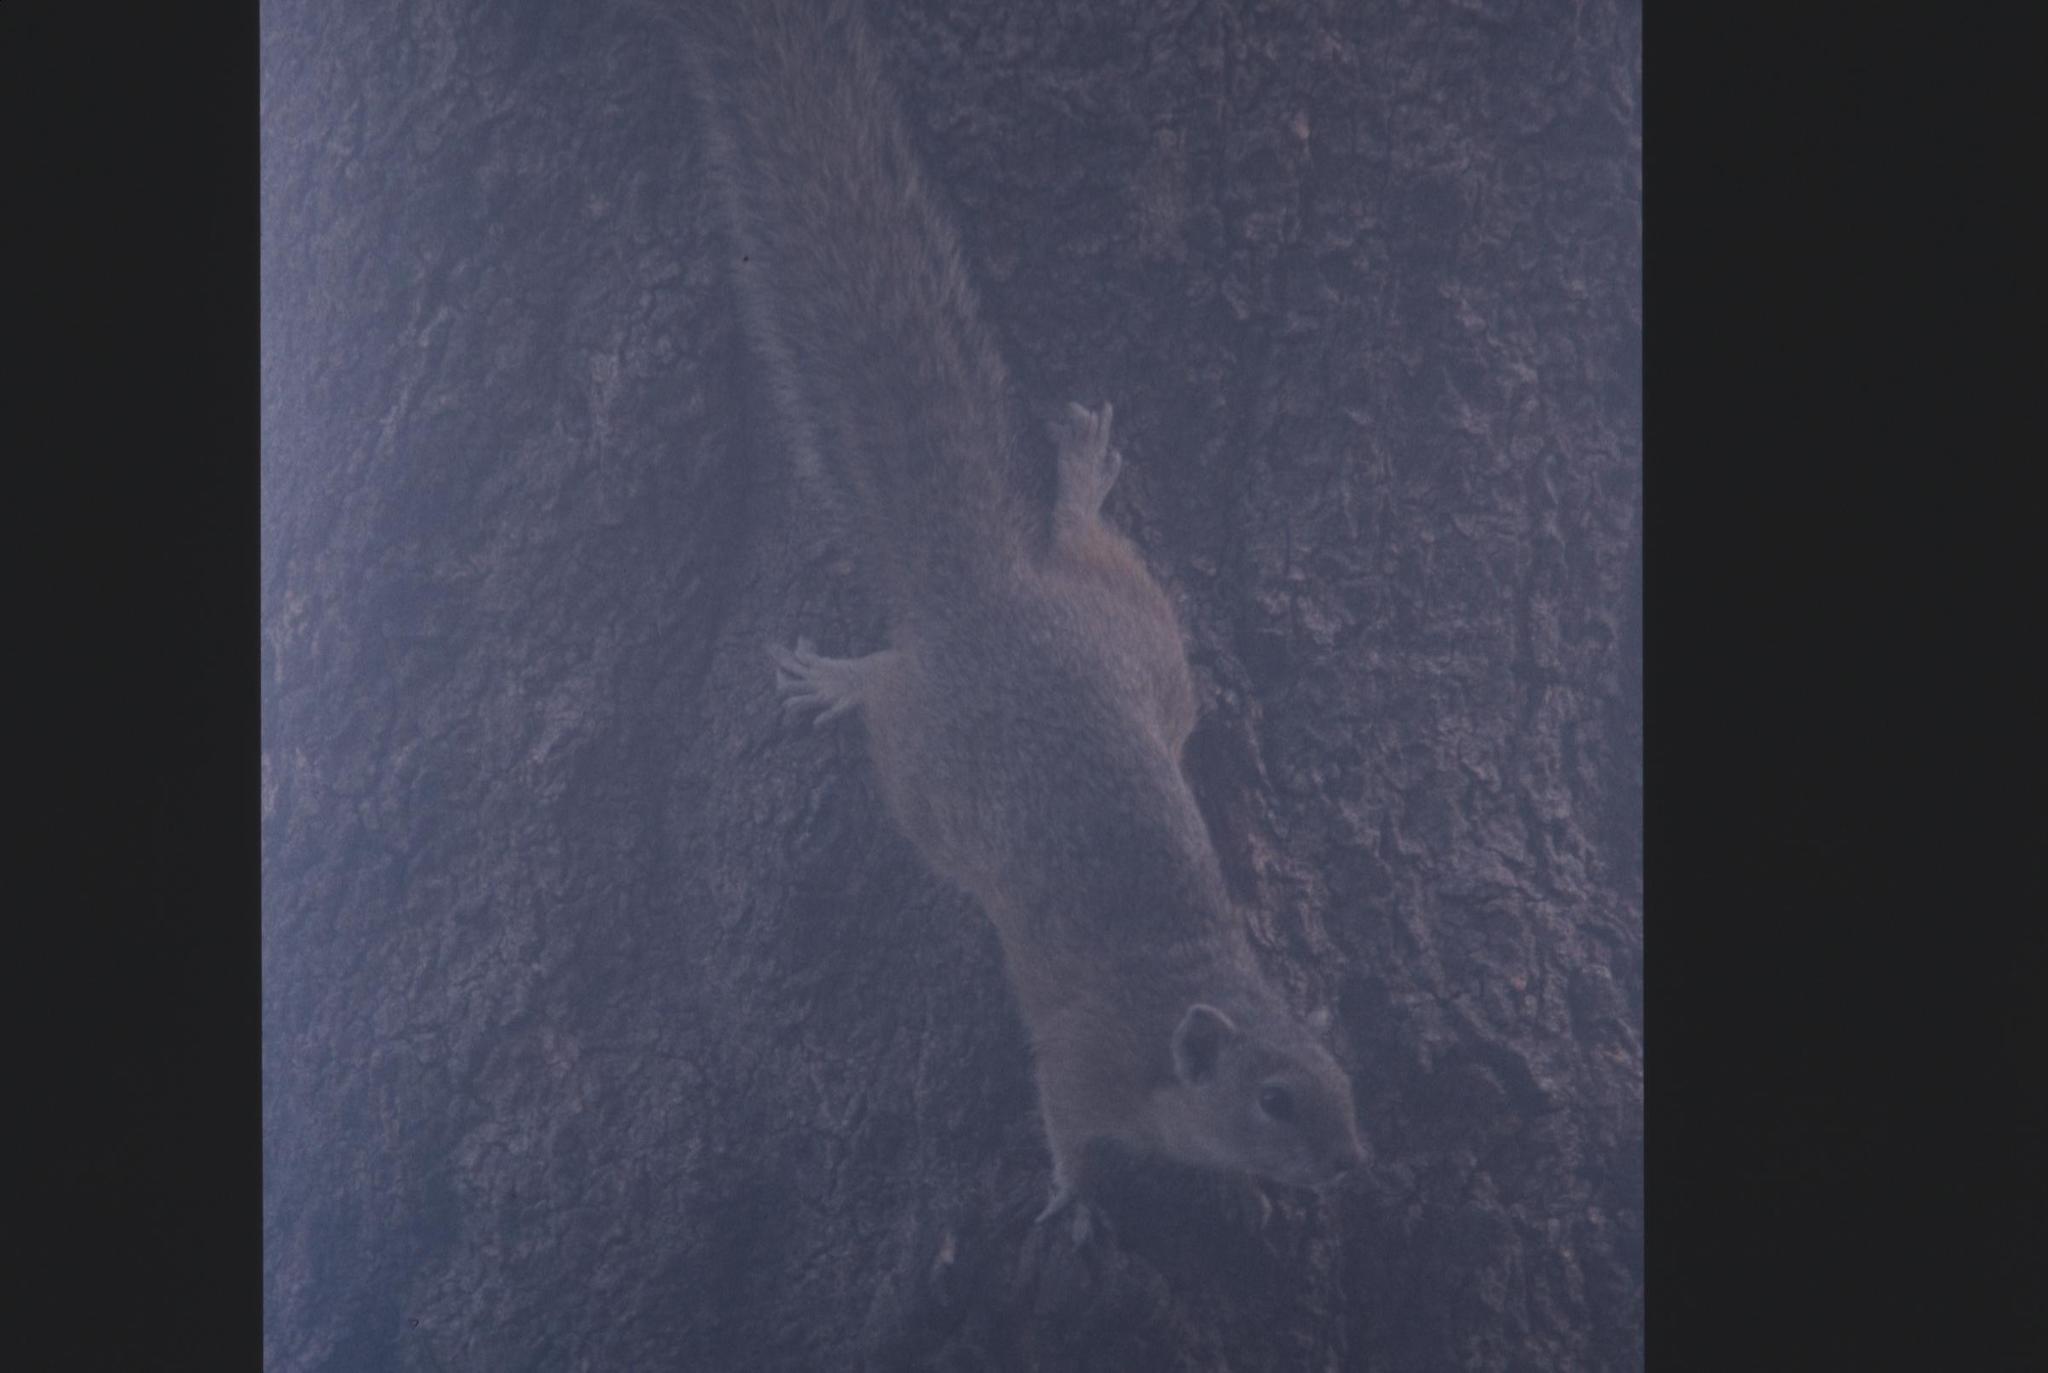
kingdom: Animalia
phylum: Chordata
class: Mammalia
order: Rodentia
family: Sciuridae
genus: Paraxerus
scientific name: Paraxerus cepapi
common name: Smith's bush squirrel
